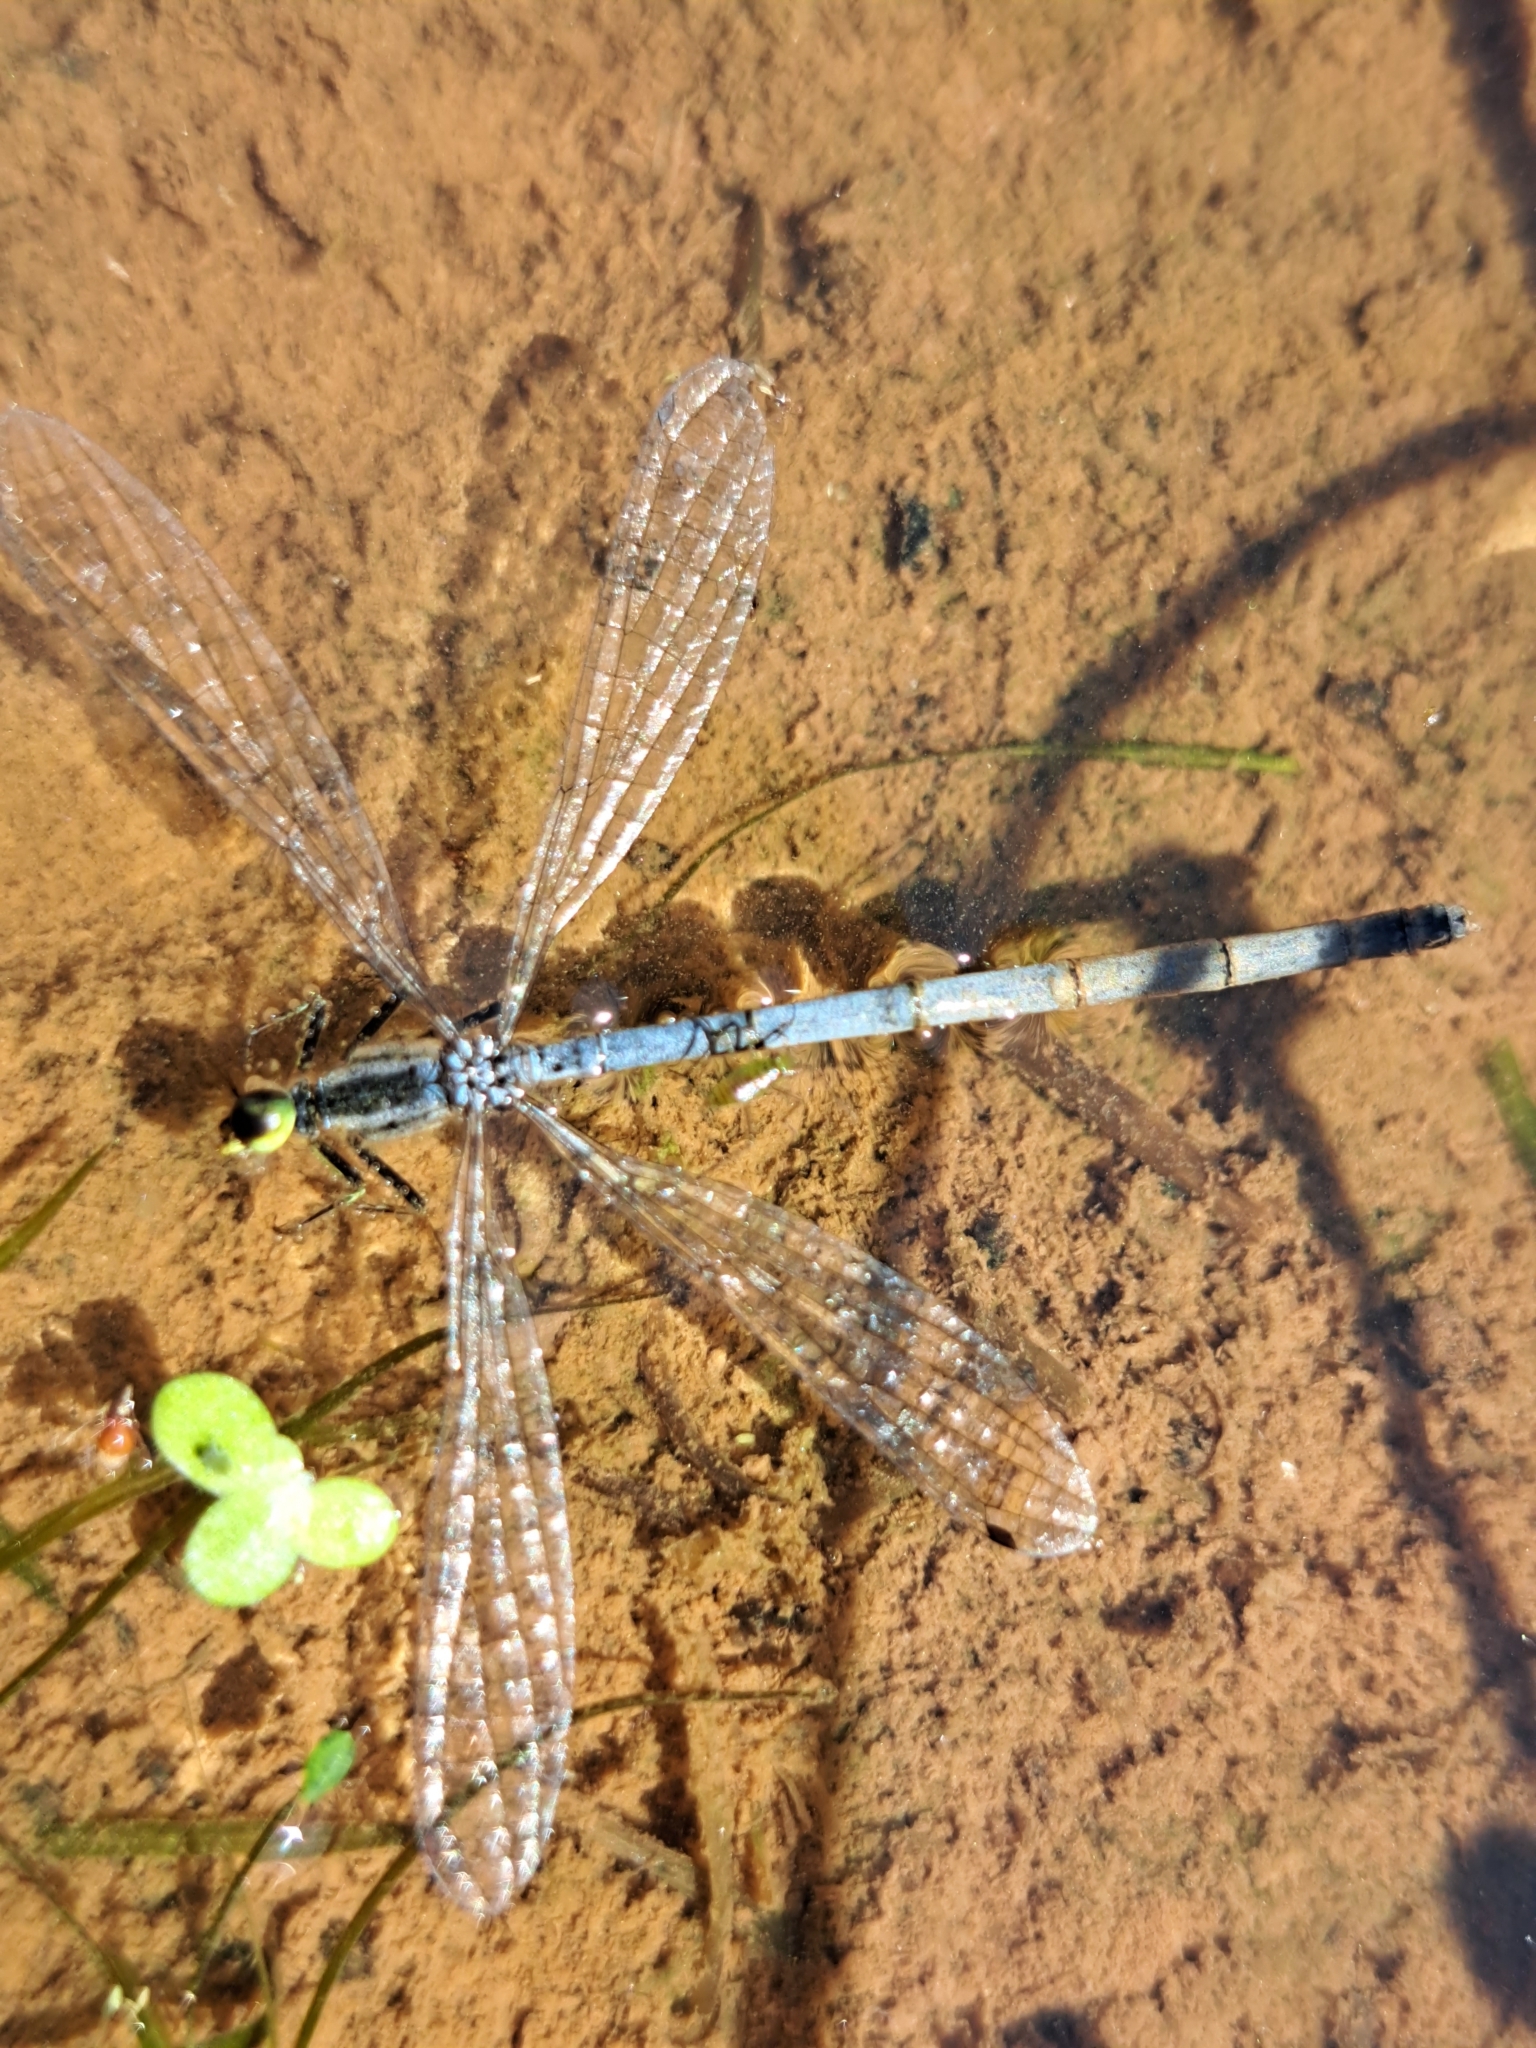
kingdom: Animalia
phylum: Arthropoda
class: Insecta
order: Odonata
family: Coenagrionidae
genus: Ischnura
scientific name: Ischnura verticalis
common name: Eastern forktail
